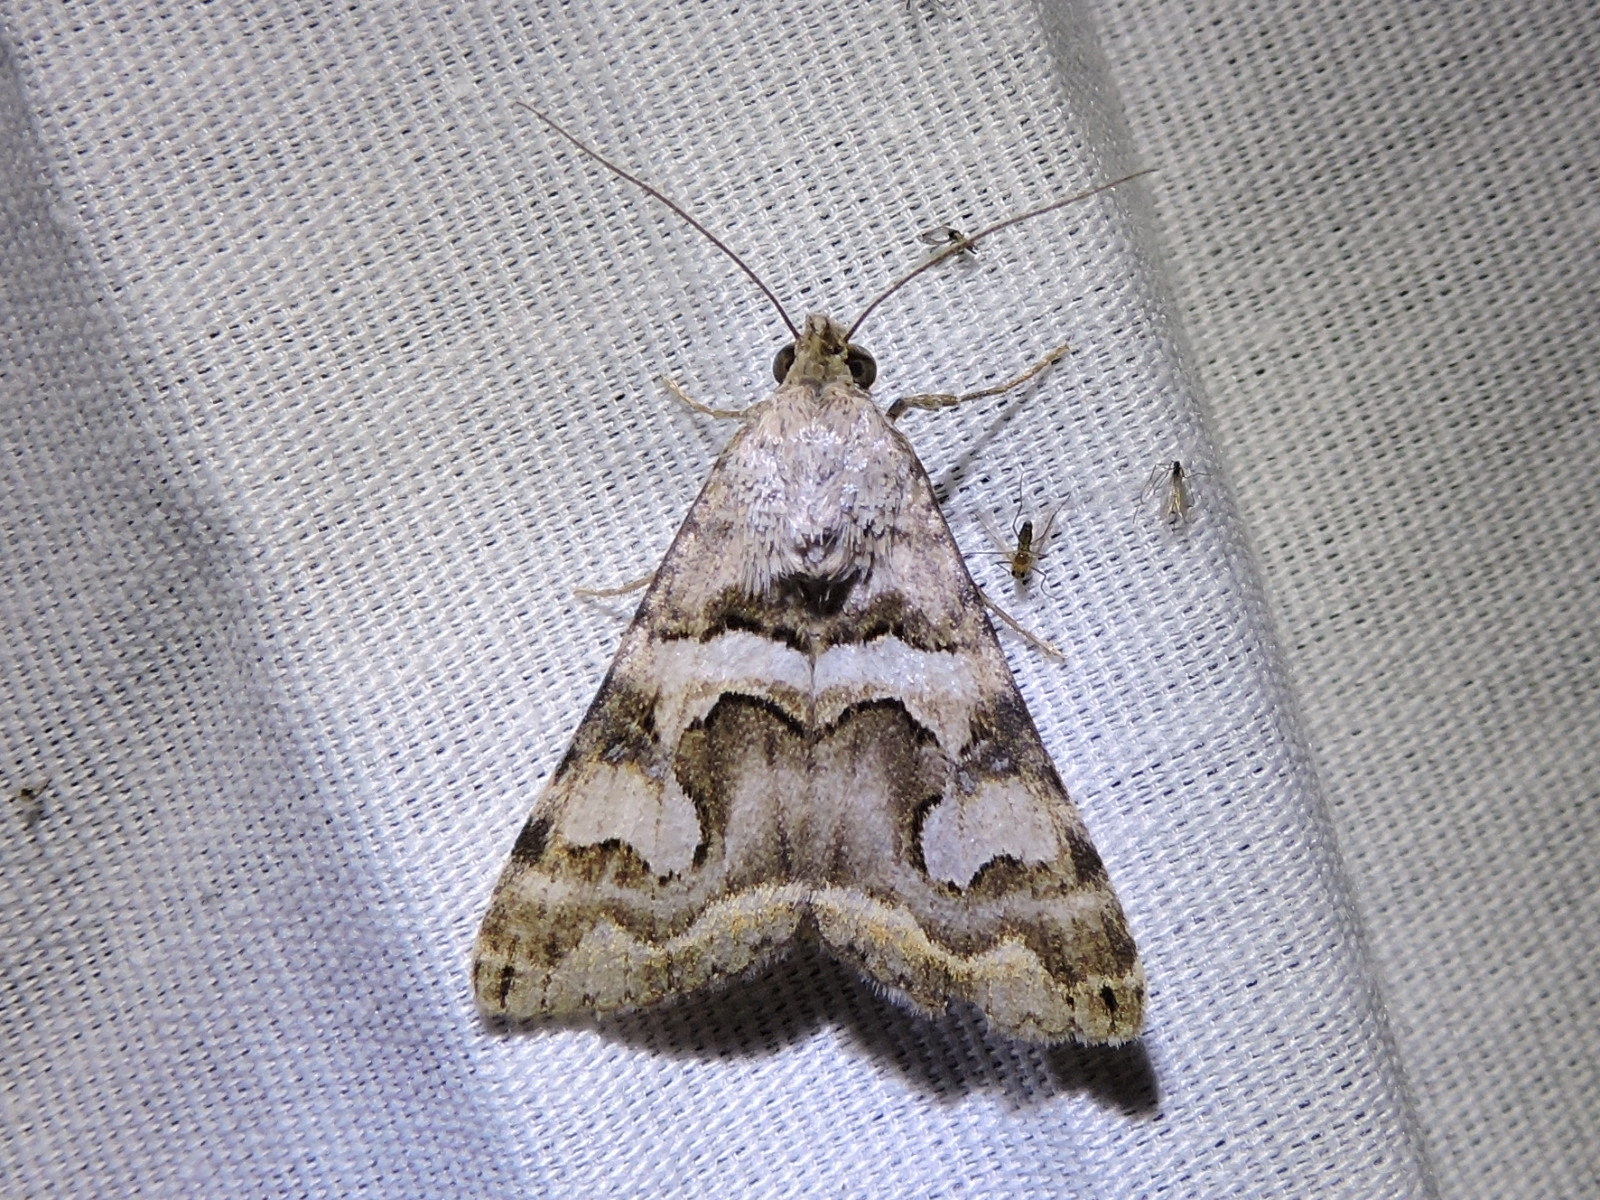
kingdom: Animalia
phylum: Arthropoda
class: Insecta
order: Lepidoptera
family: Erebidae
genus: Bulia
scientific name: Bulia deducta
